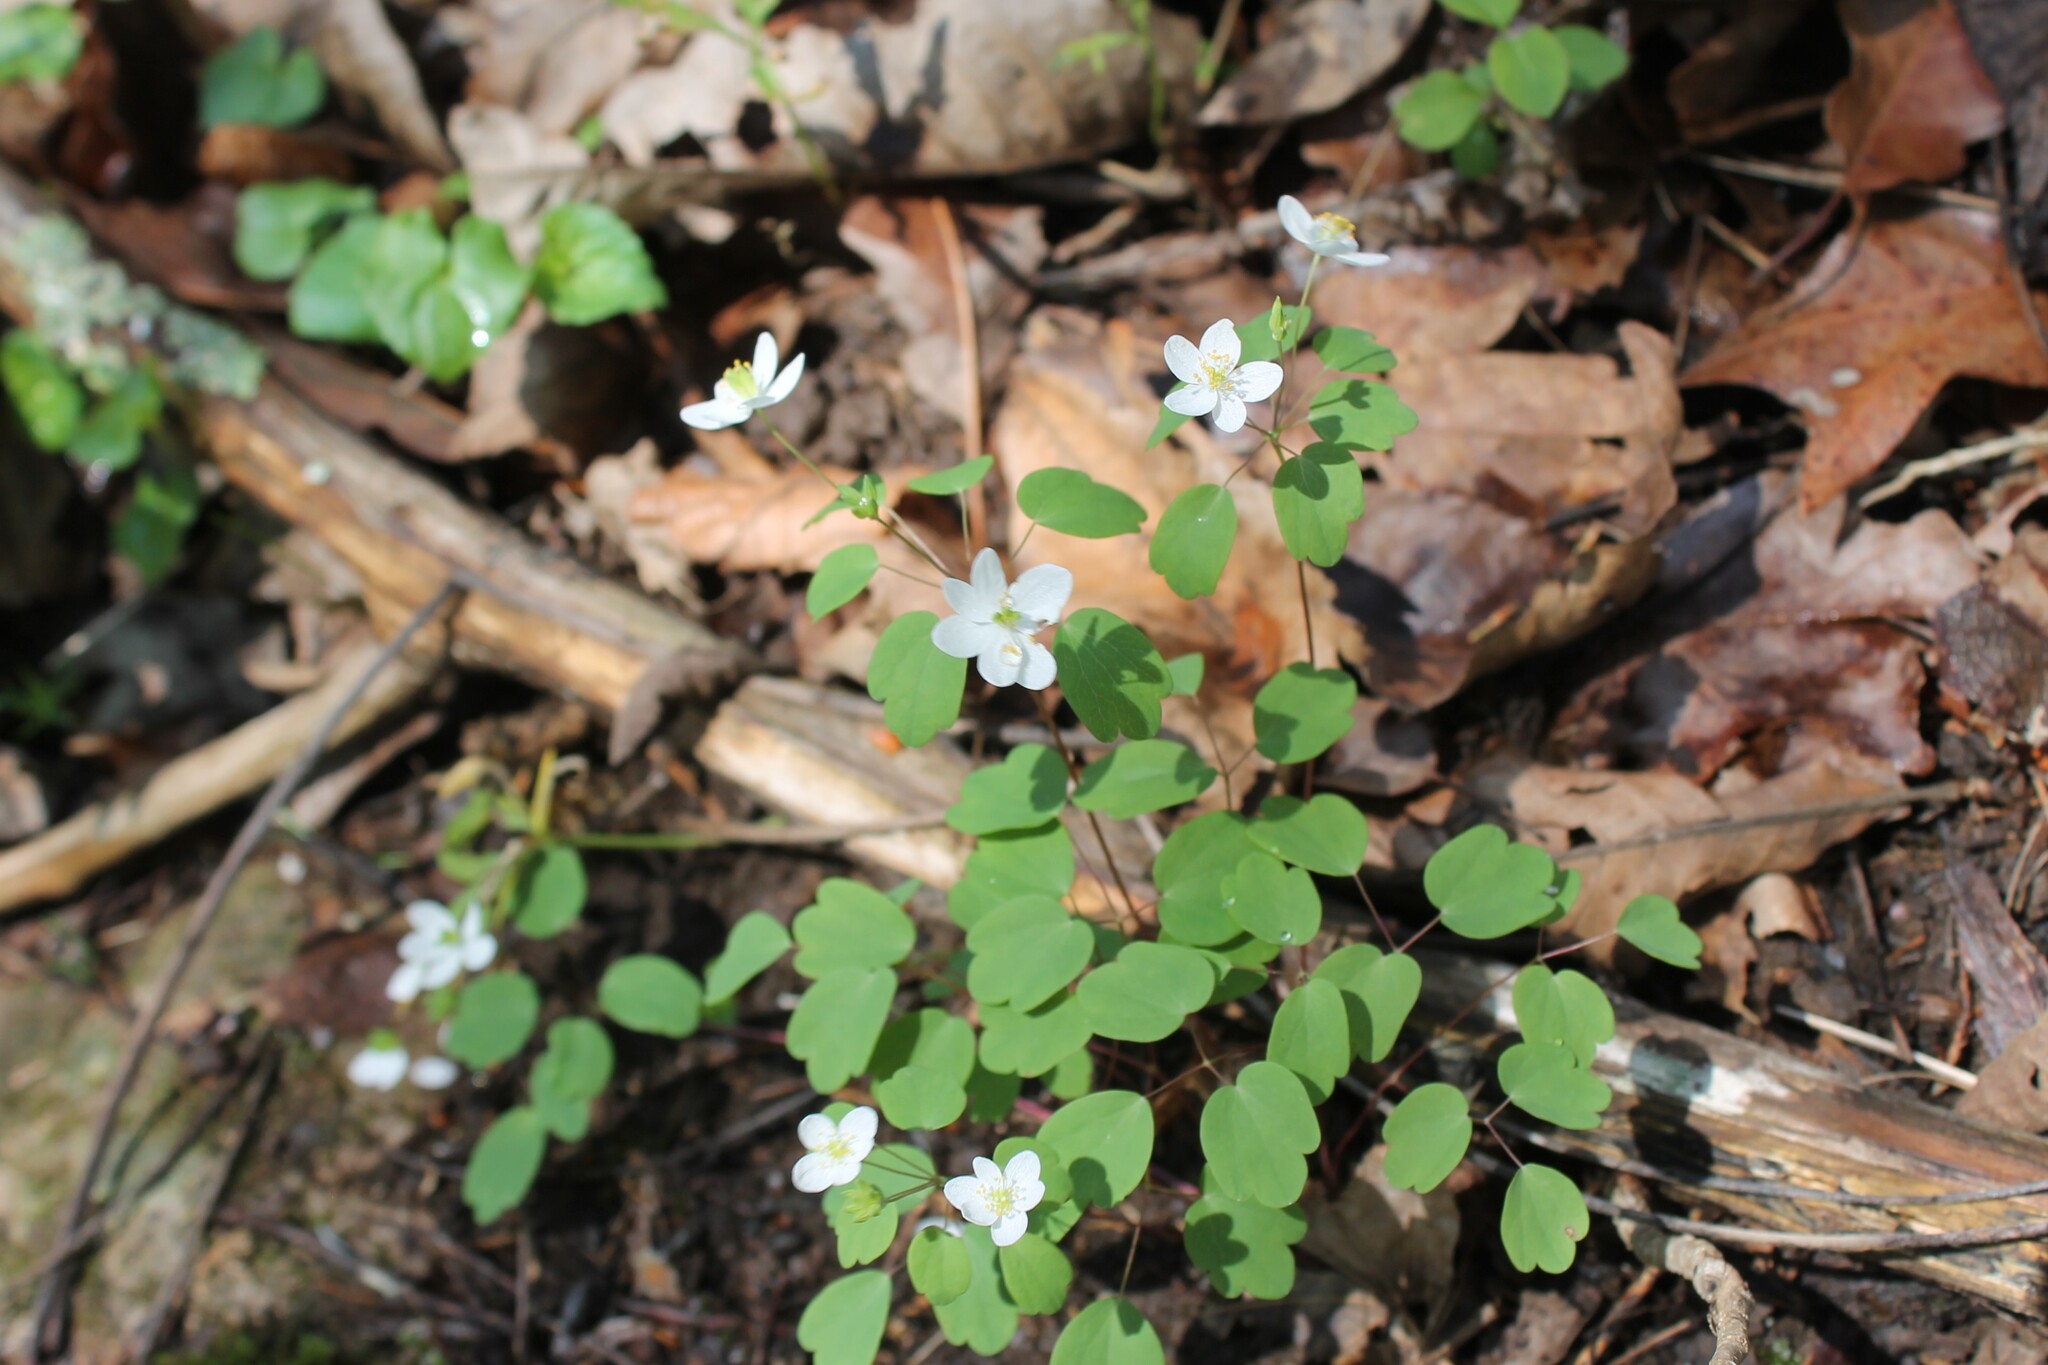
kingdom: Plantae
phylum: Tracheophyta
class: Magnoliopsida
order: Ranunculales
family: Ranunculaceae
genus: Thalictrum
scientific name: Thalictrum thalictroides
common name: Rue-anemone
